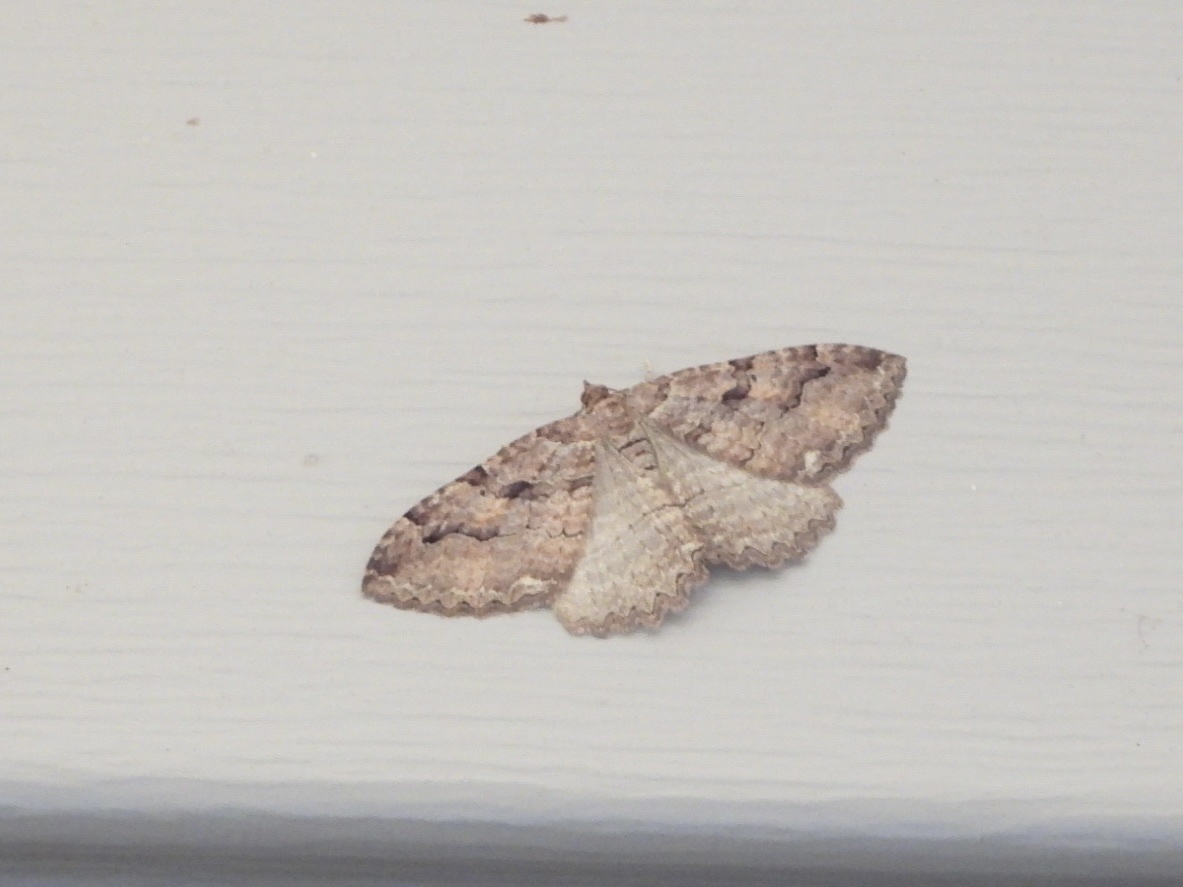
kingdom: Animalia
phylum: Arthropoda
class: Insecta
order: Lepidoptera
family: Geometridae
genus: Triphosa
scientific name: Triphosa haesitata
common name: Tissue moth
